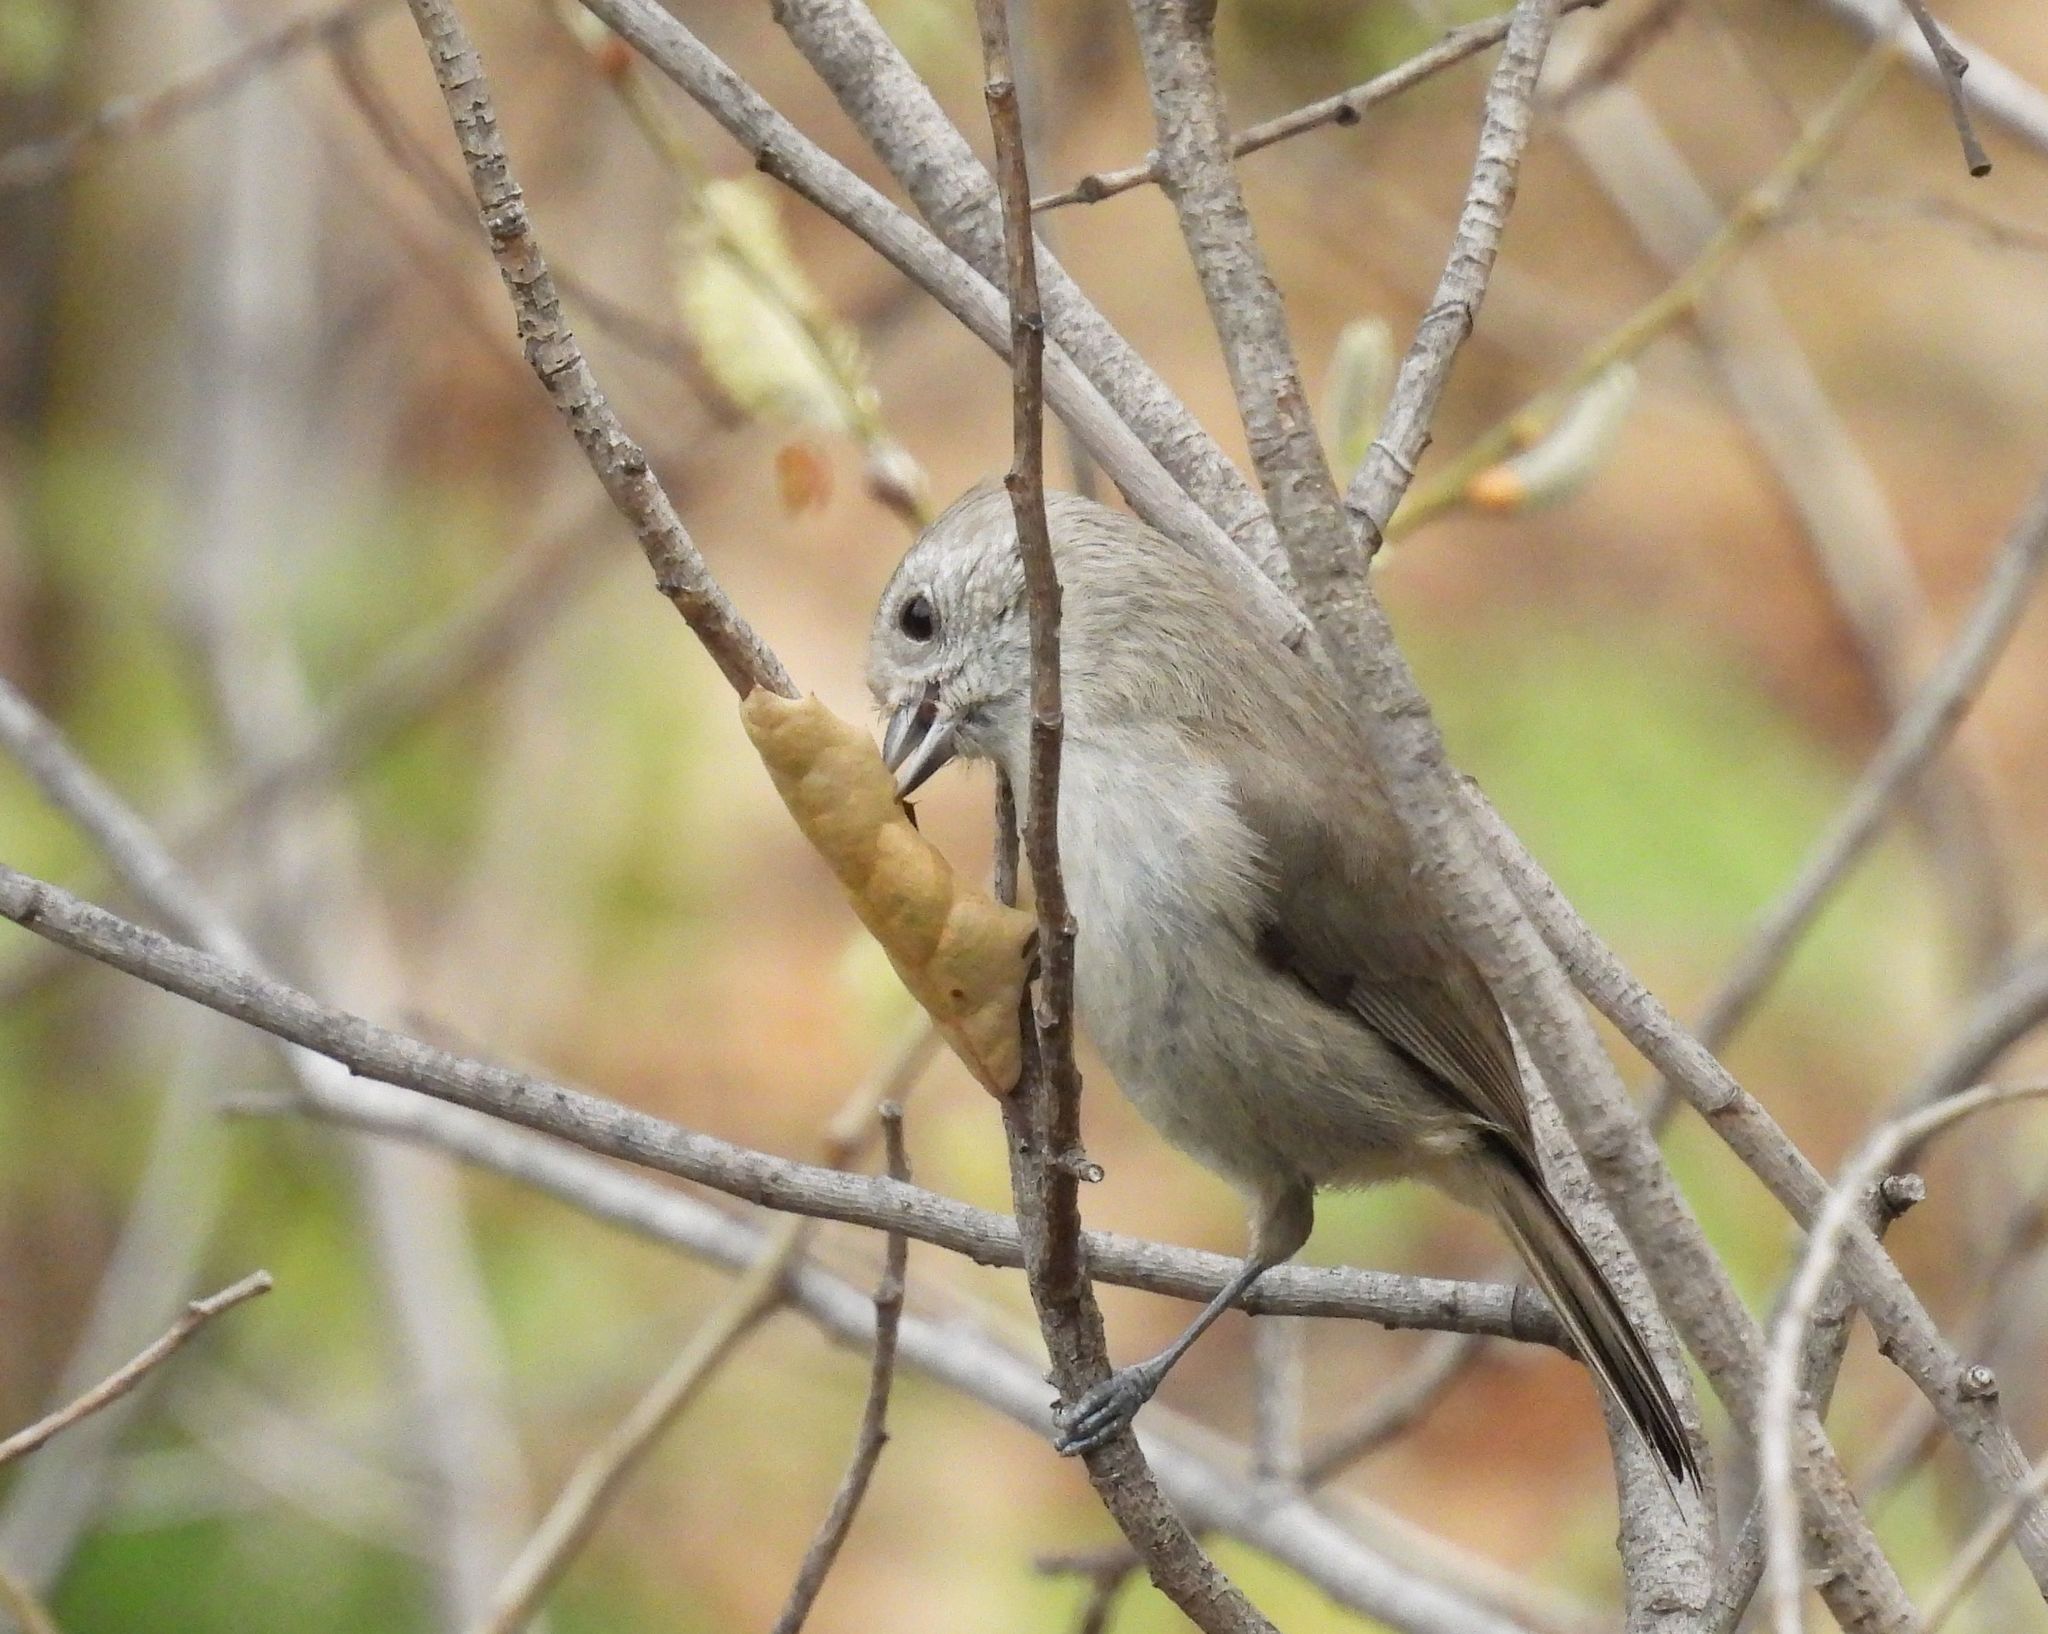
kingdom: Animalia
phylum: Chordata
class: Aves
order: Passeriformes
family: Paridae
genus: Baeolophus
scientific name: Baeolophus inornatus
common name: Oak titmouse
